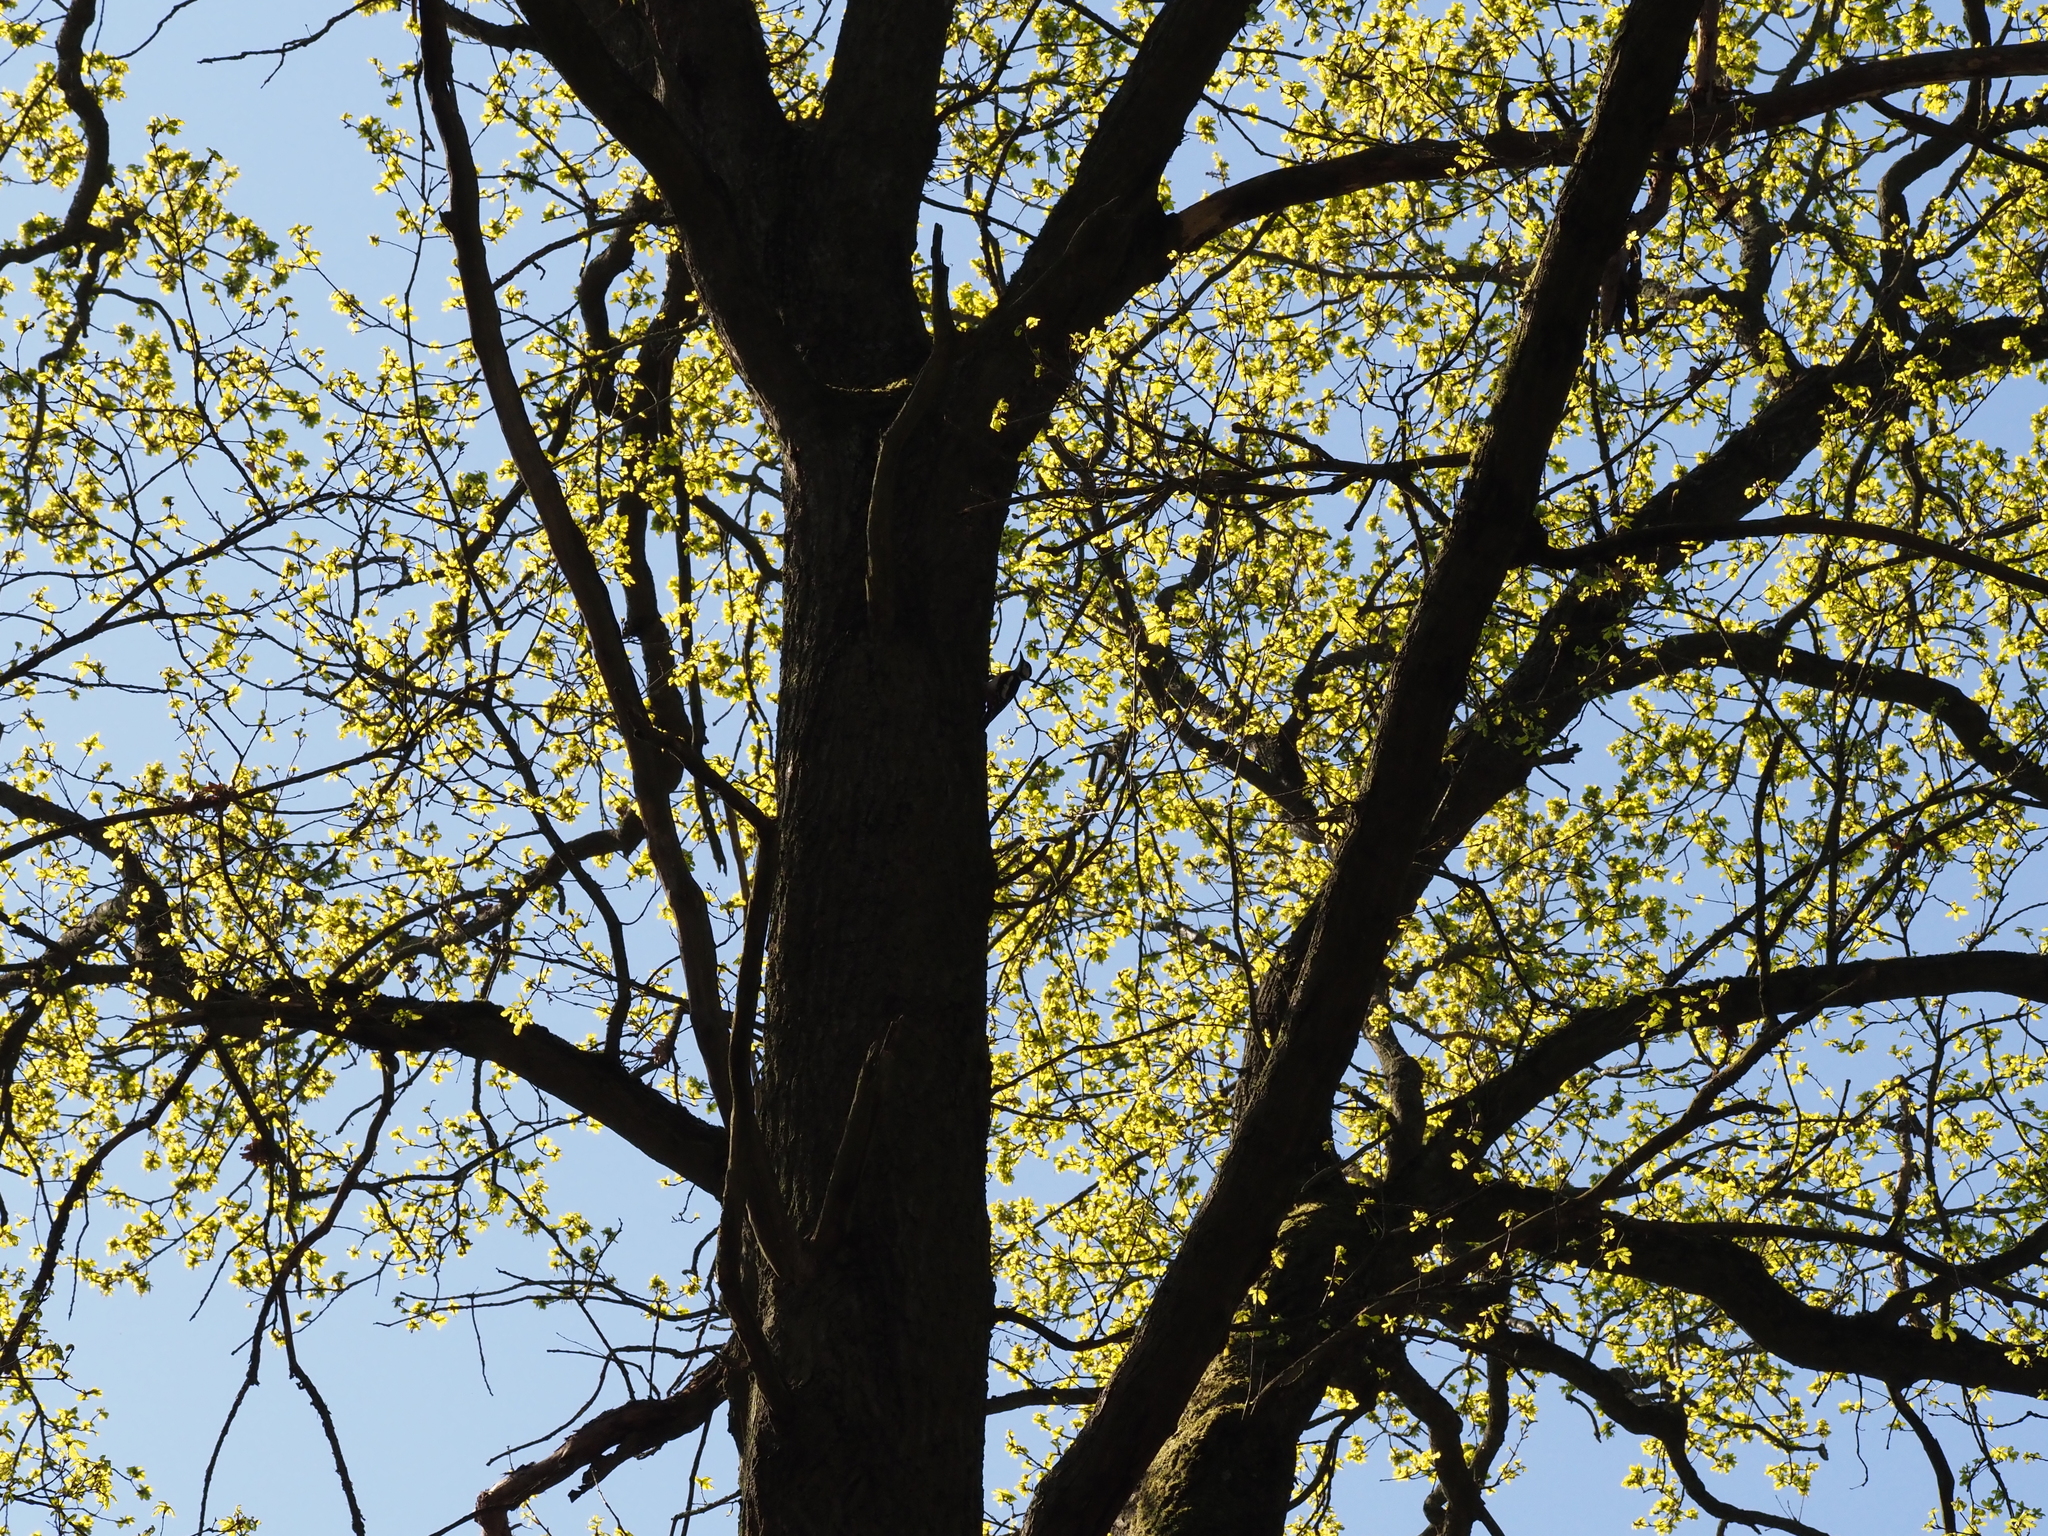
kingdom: Animalia
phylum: Chordata
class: Aves
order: Piciformes
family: Picidae
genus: Dendrocopos
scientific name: Dendrocopos major
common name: Great spotted woodpecker
